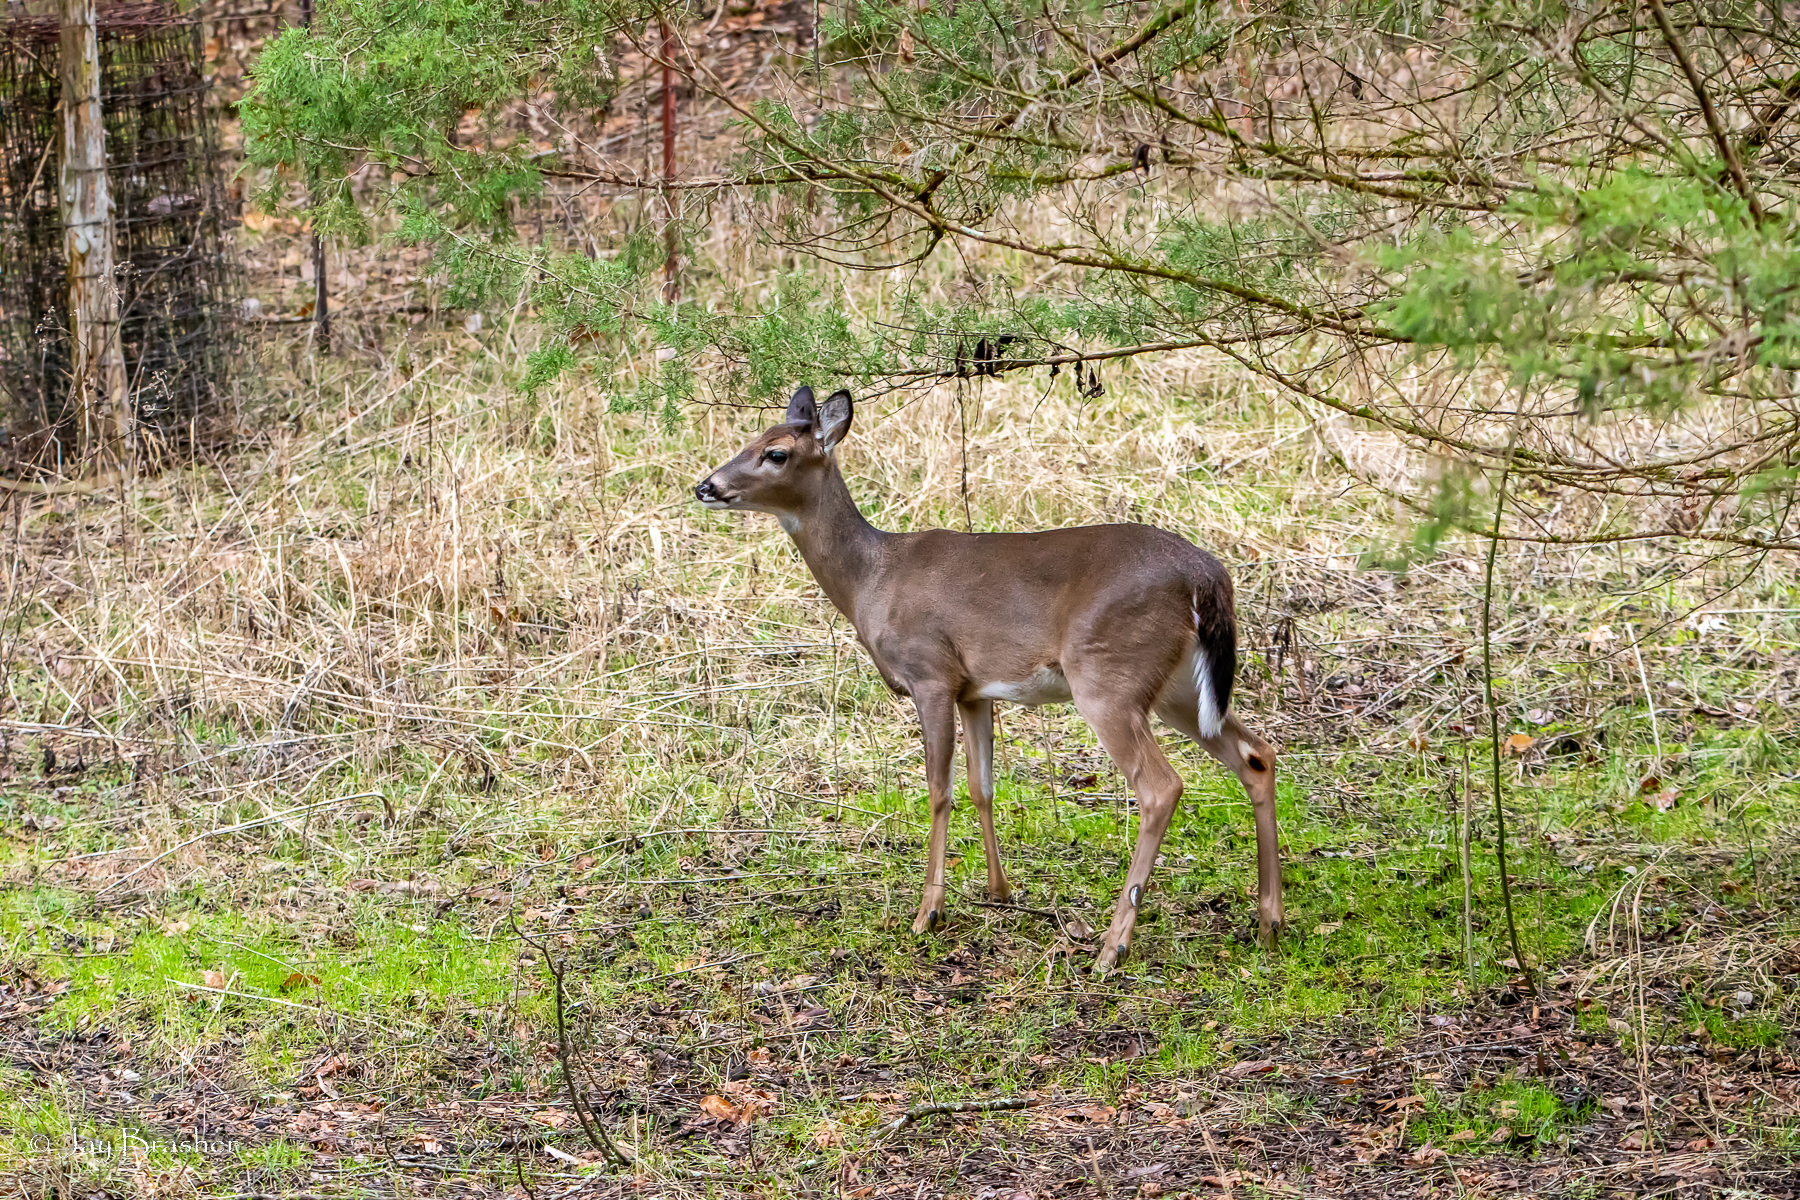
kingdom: Animalia
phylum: Chordata
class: Mammalia
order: Artiodactyla
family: Cervidae
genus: Odocoileus
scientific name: Odocoileus virginianus
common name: White-tailed deer
